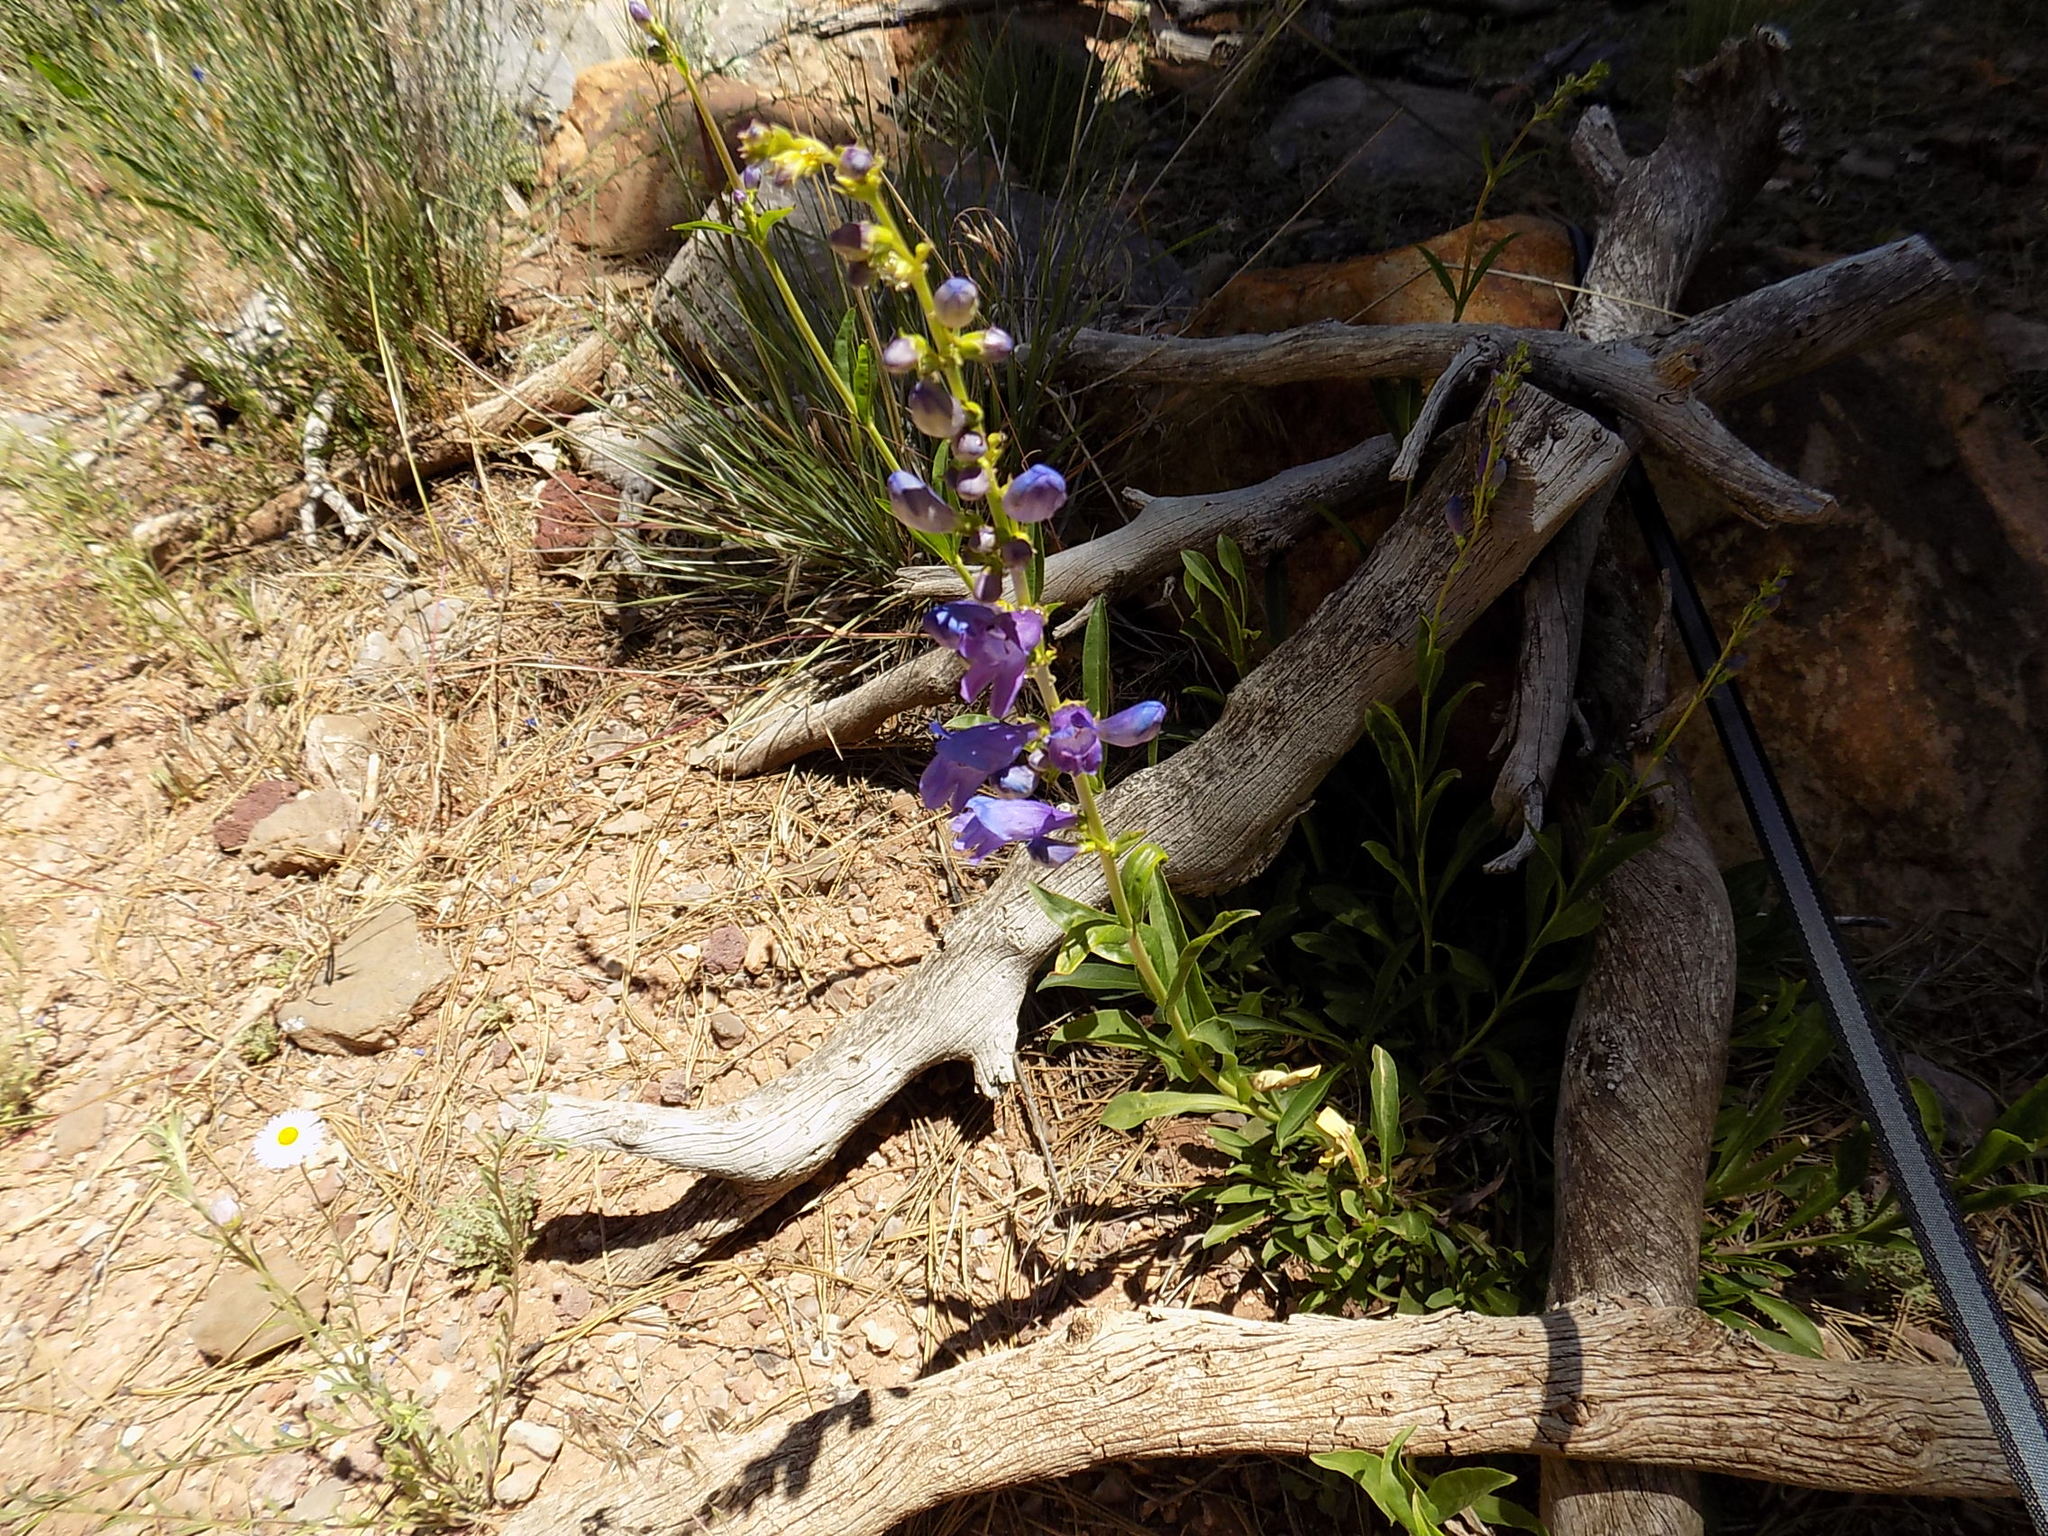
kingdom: Plantae
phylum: Tracheophyta
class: Magnoliopsida
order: Lamiales
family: Plantaginaceae
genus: Penstemon
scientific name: Penstemon strictus
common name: Rocky mountain penstemon
